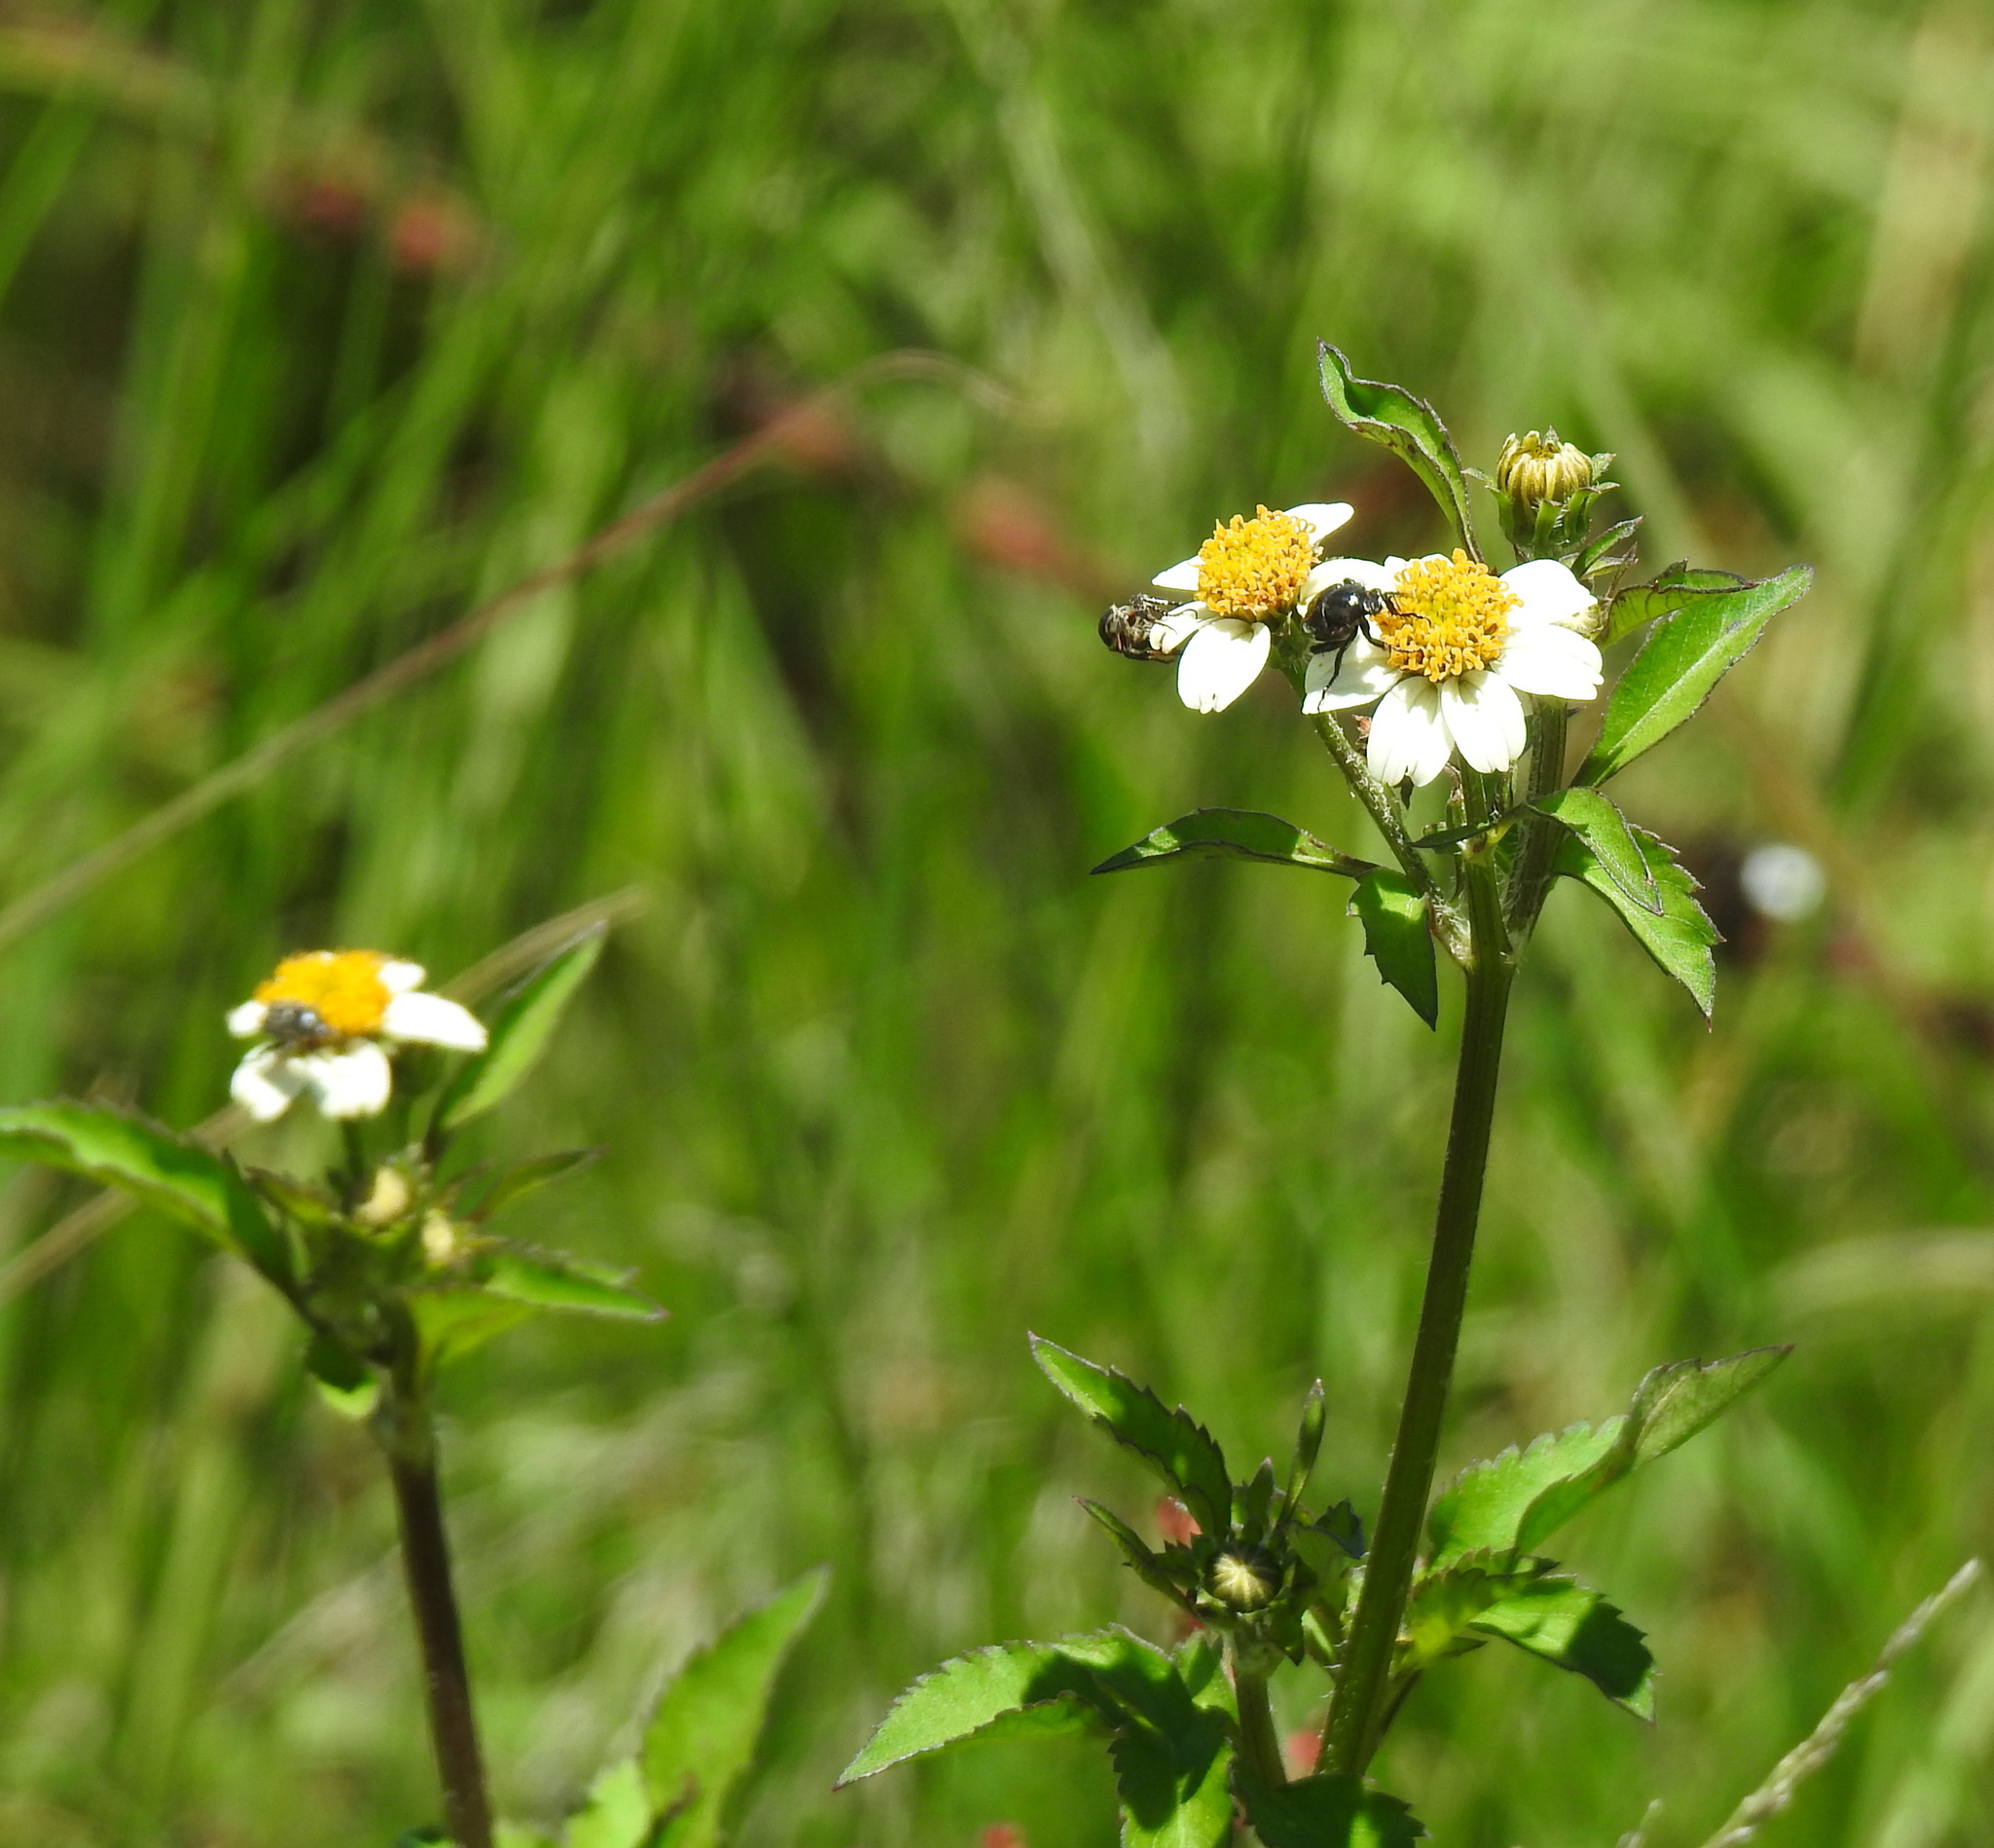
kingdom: Plantae
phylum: Tracheophyta
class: Magnoliopsida
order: Asterales
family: Asteraceae
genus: Bidens
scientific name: Bidens pilosa
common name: Black-jack
